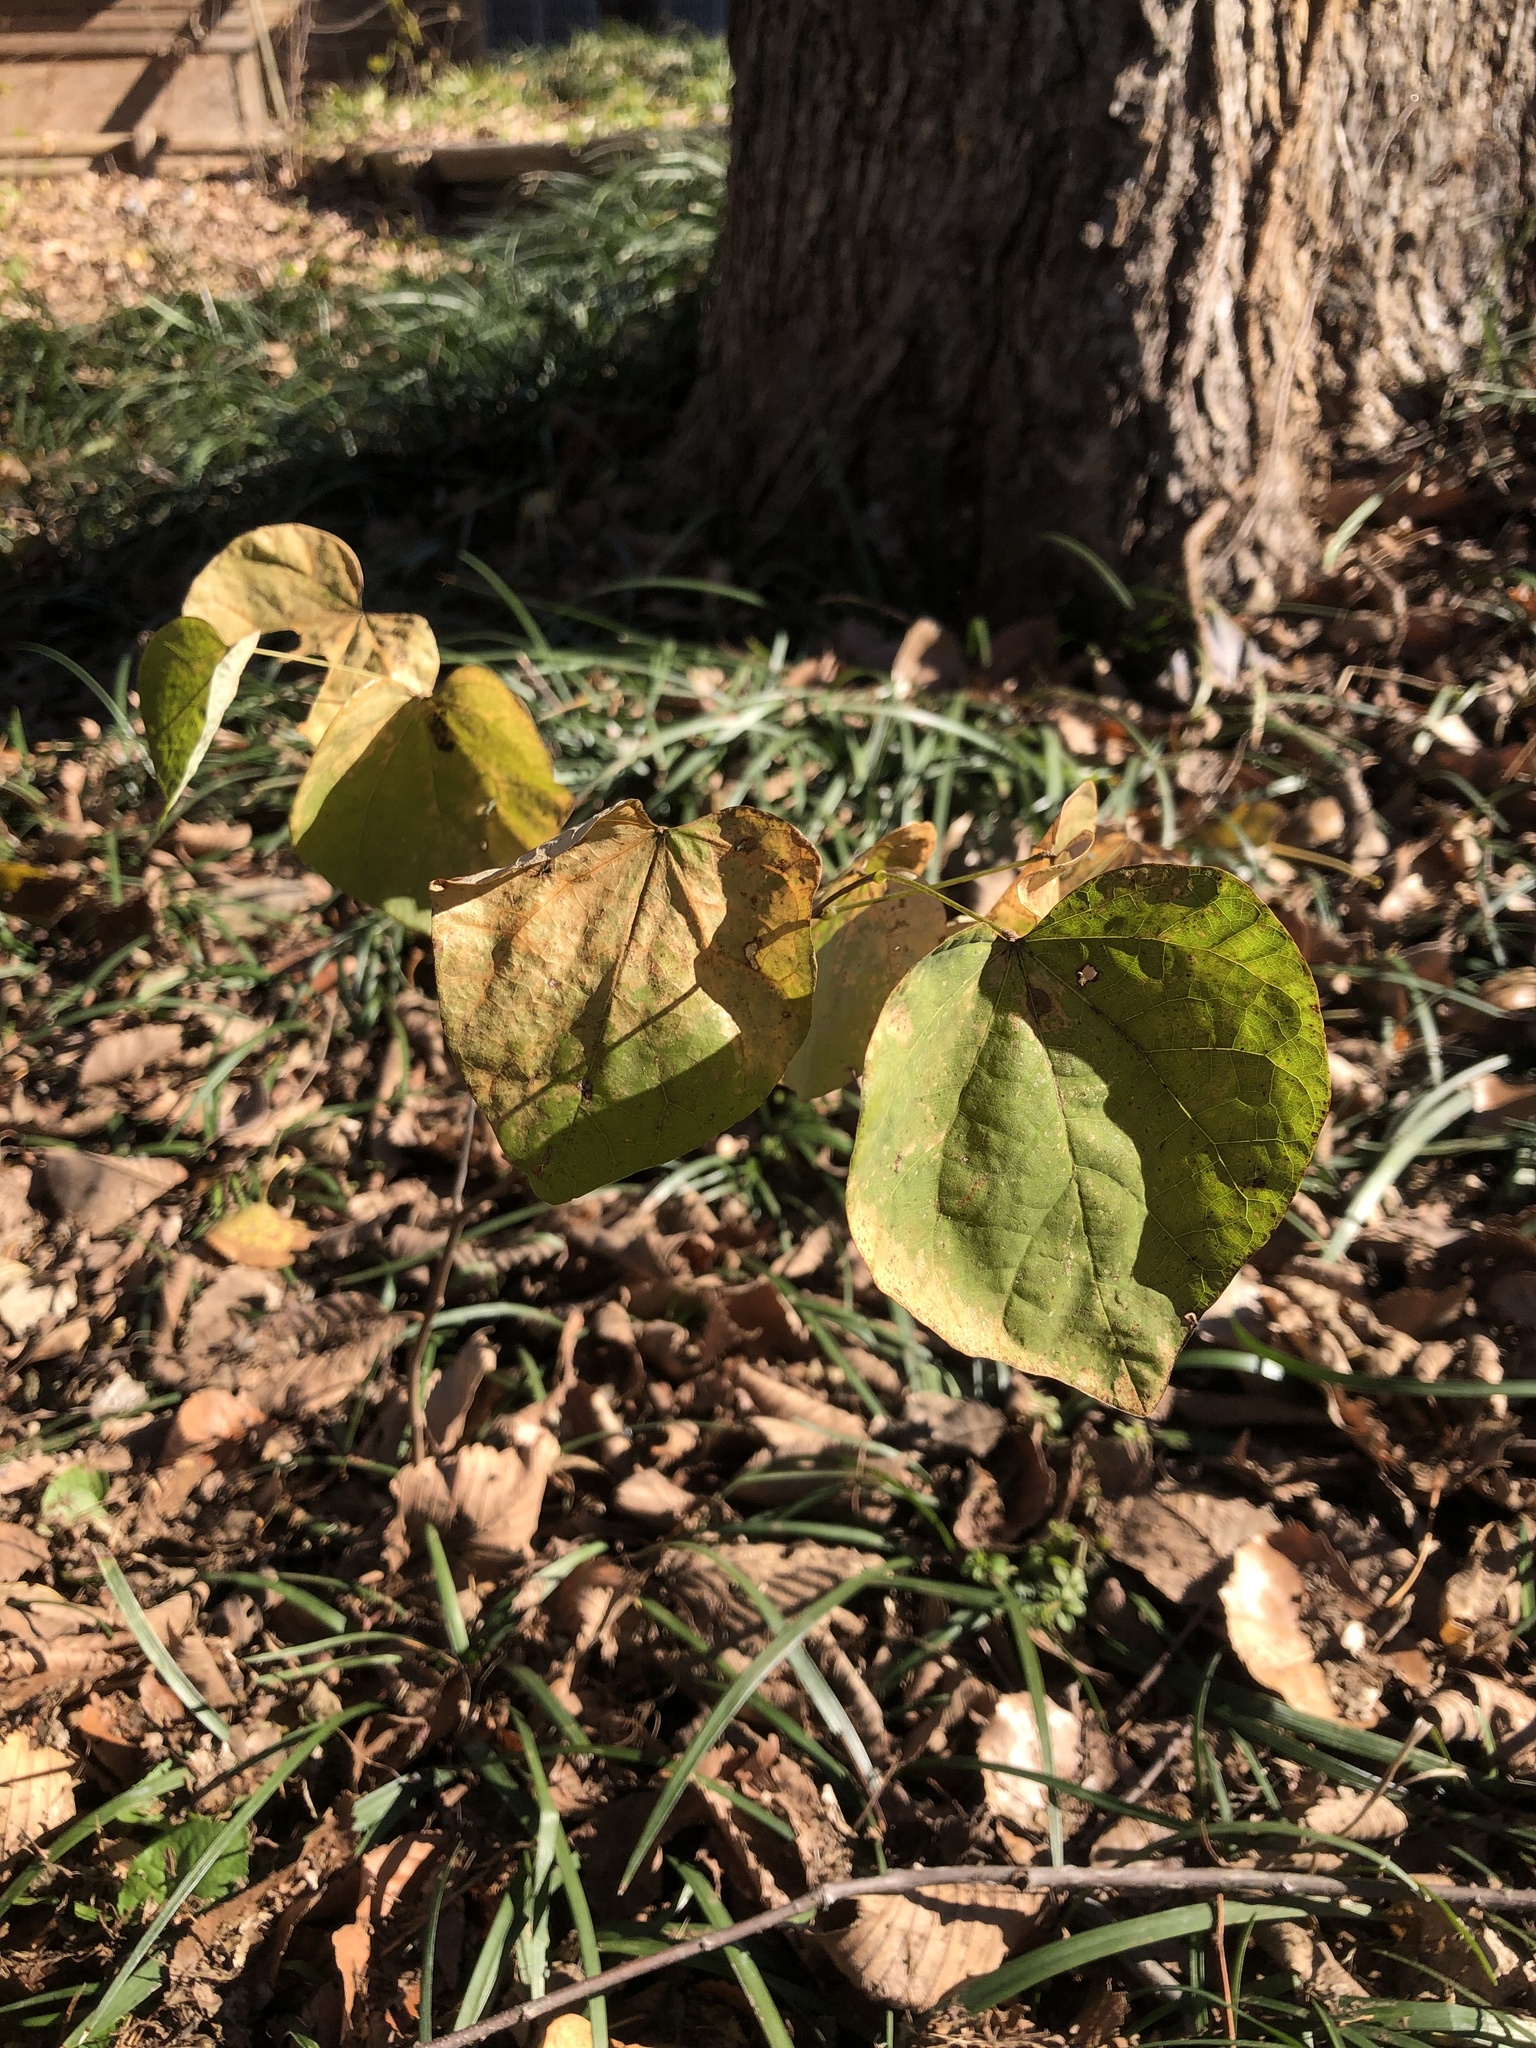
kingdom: Plantae
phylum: Tracheophyta
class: Magnoliopsida
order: Fabales
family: Fabaceae
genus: Cercis
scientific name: Cercis canadensis
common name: Eastern redbud
